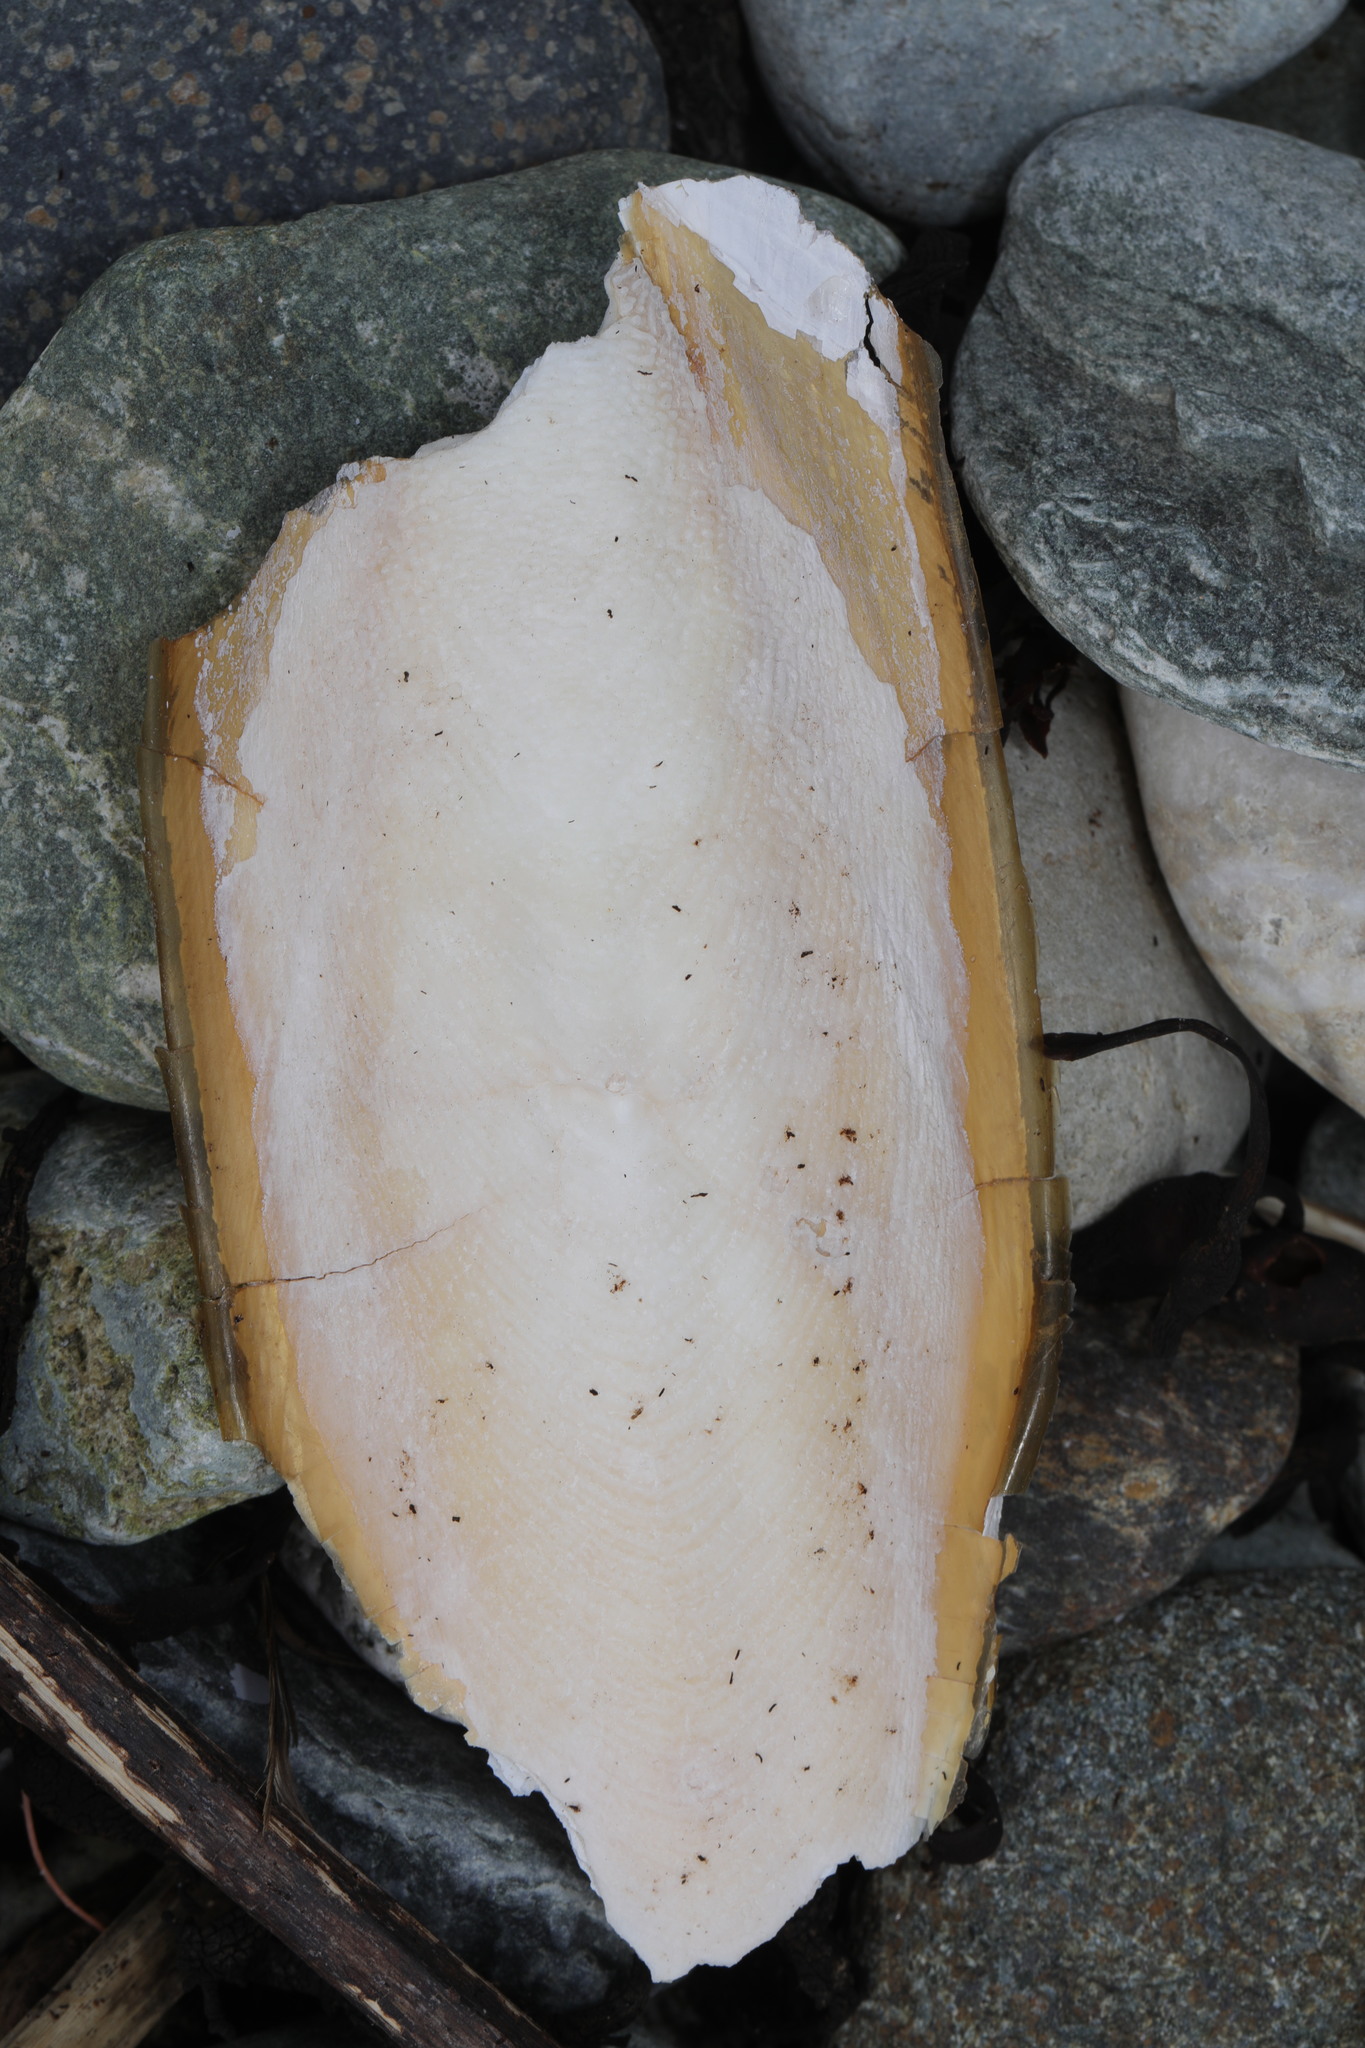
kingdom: Animalia
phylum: Mollusca
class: Cephalopoda
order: Sepiida
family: Sepiidae
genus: Sepia
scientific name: Sepia officinalis
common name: Common cuttlefish
